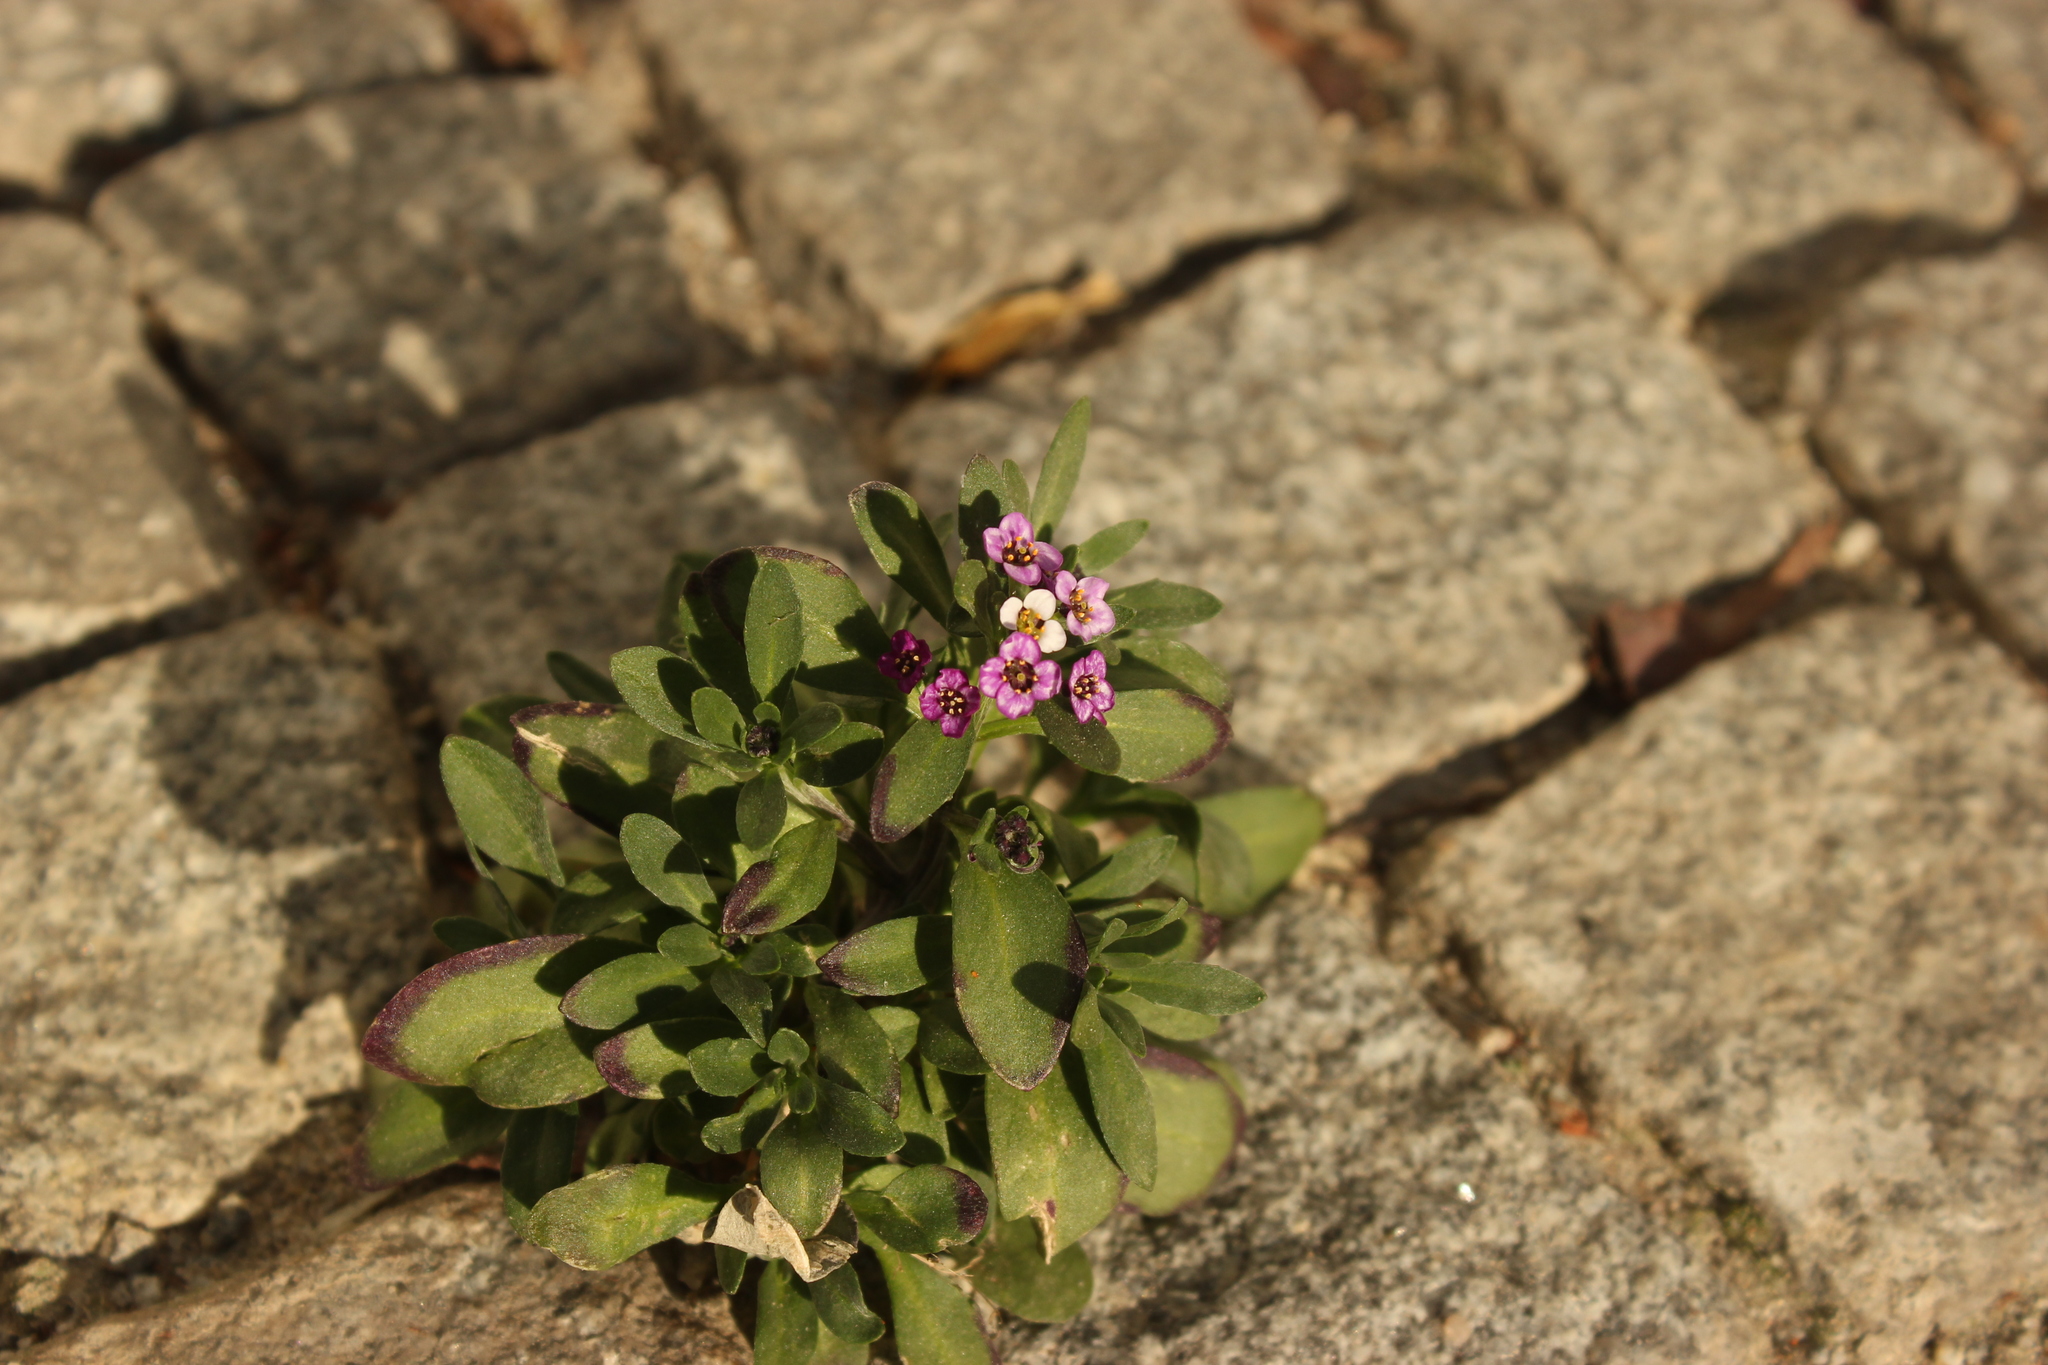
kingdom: Plantae
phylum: Tracheophyta
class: Magnoliopsida
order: Brassicales
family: Brassicaceae
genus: Lobularia
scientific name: Lobularia maritima
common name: Sweet alison
